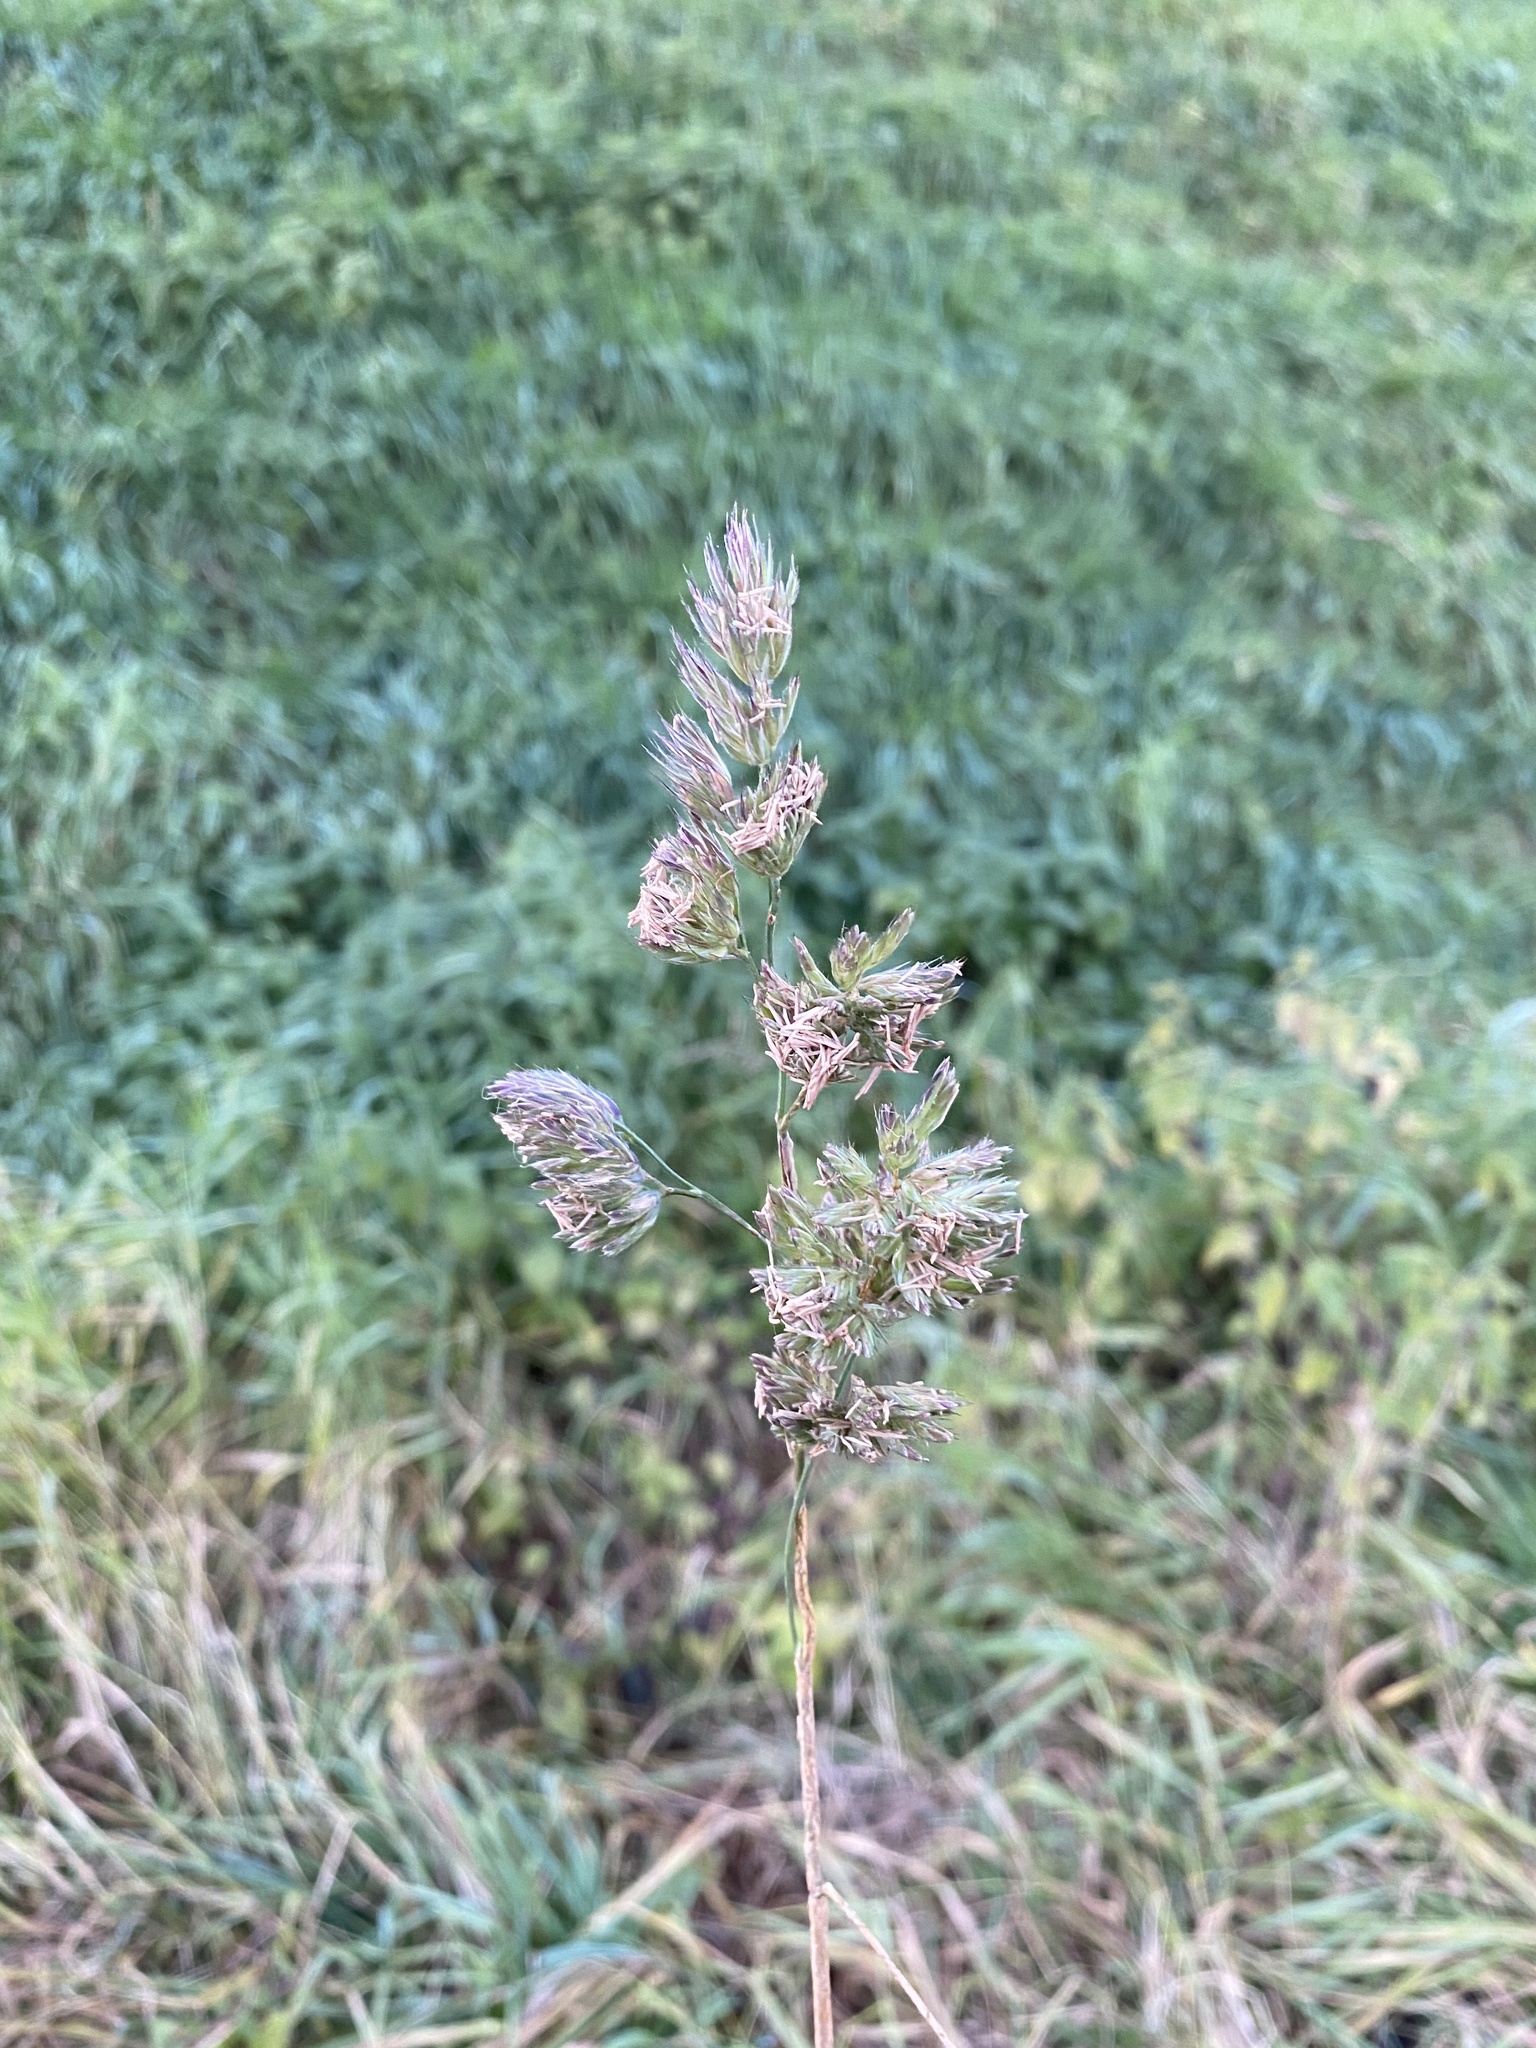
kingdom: Plantae
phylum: Tracheophyta
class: Liliopsida
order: Poales
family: Poaceae
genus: Dactylis
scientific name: Dactylis glomerata
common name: Orchardgrass
